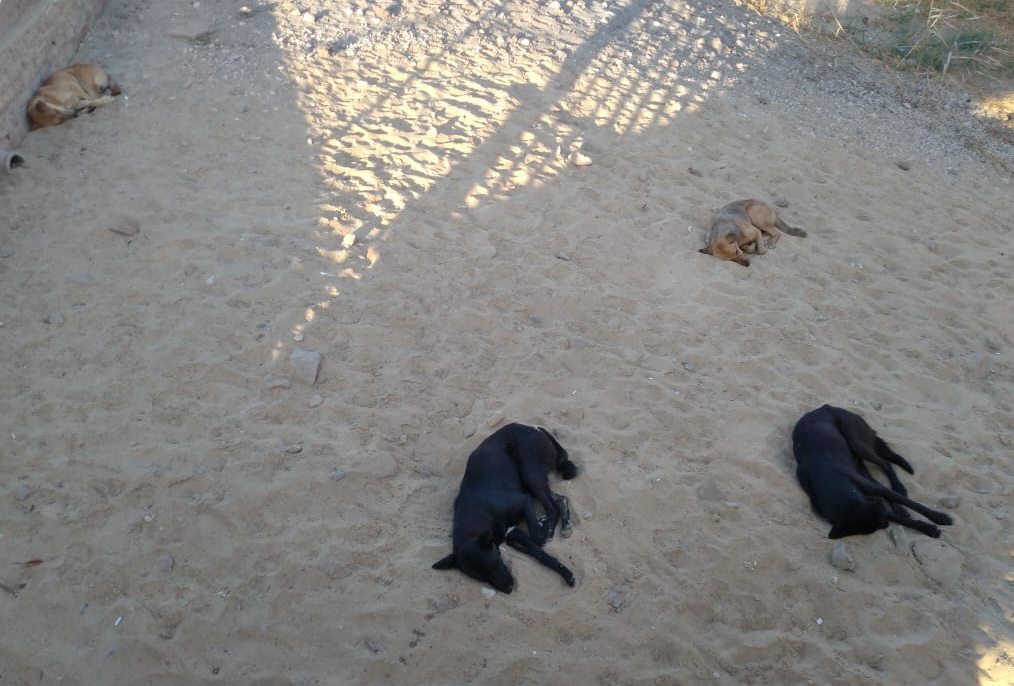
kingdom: Animalia
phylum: Chordata
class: Mammalia
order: Carnivora
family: Canidae
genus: Canis
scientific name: Canis lupus
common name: Gray wolf
